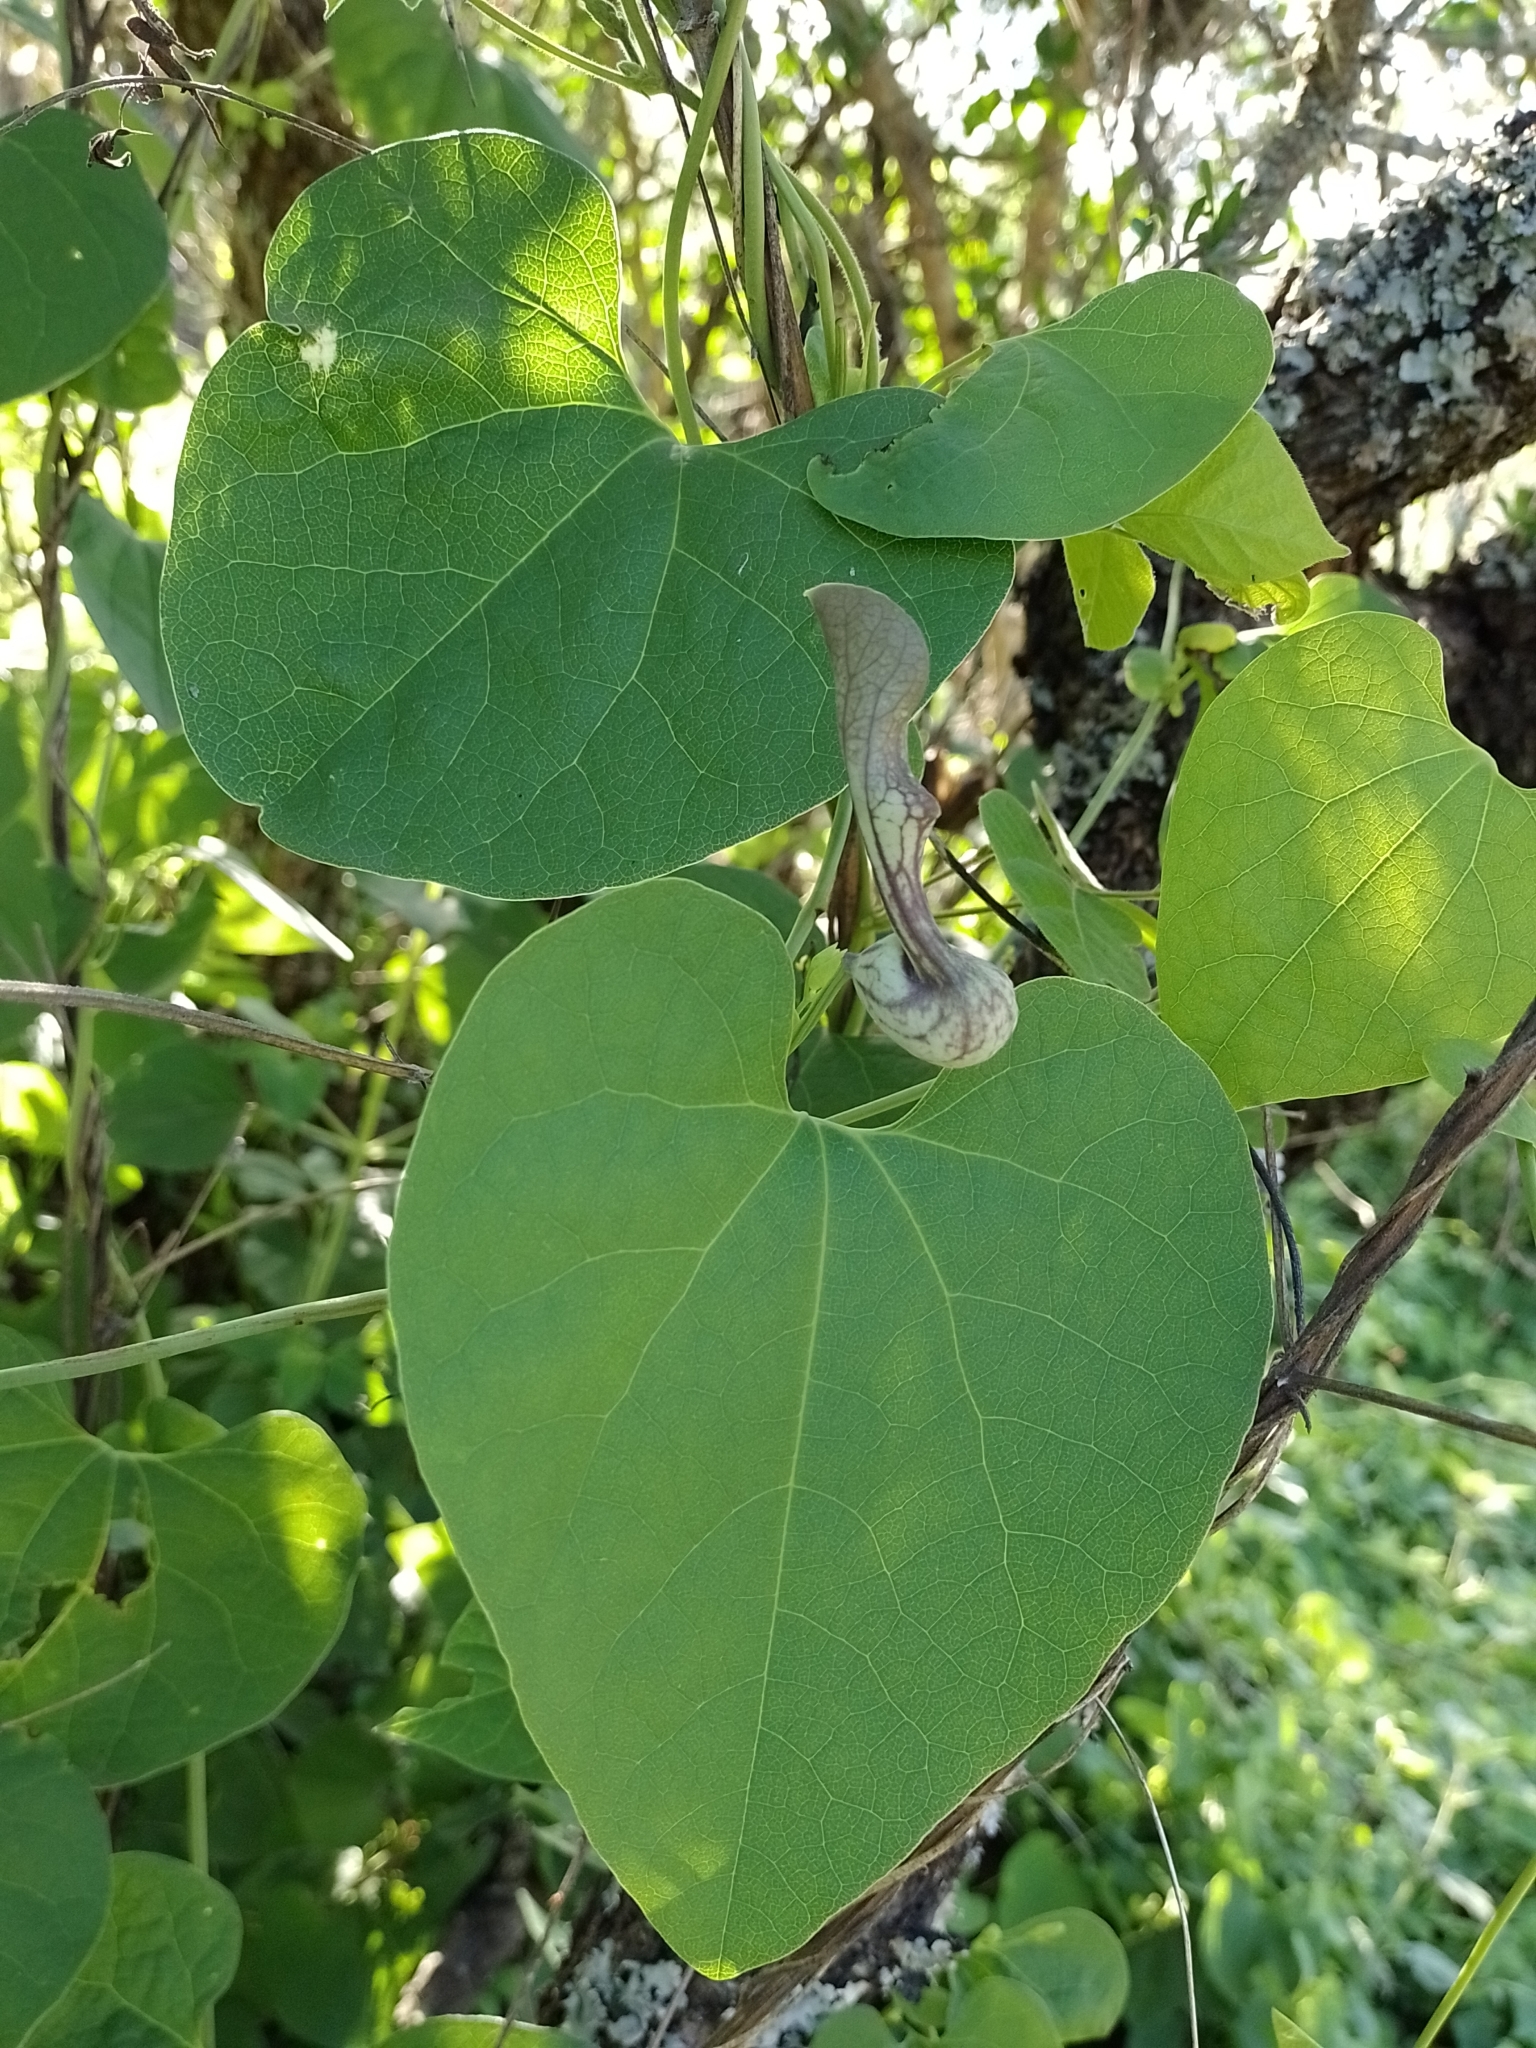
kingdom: Plantae
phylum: Tracheophyta
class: Magnoliopsida
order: Piperales
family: Aristolochiaceae
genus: Aristolochia
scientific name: Aristolochia argentina
